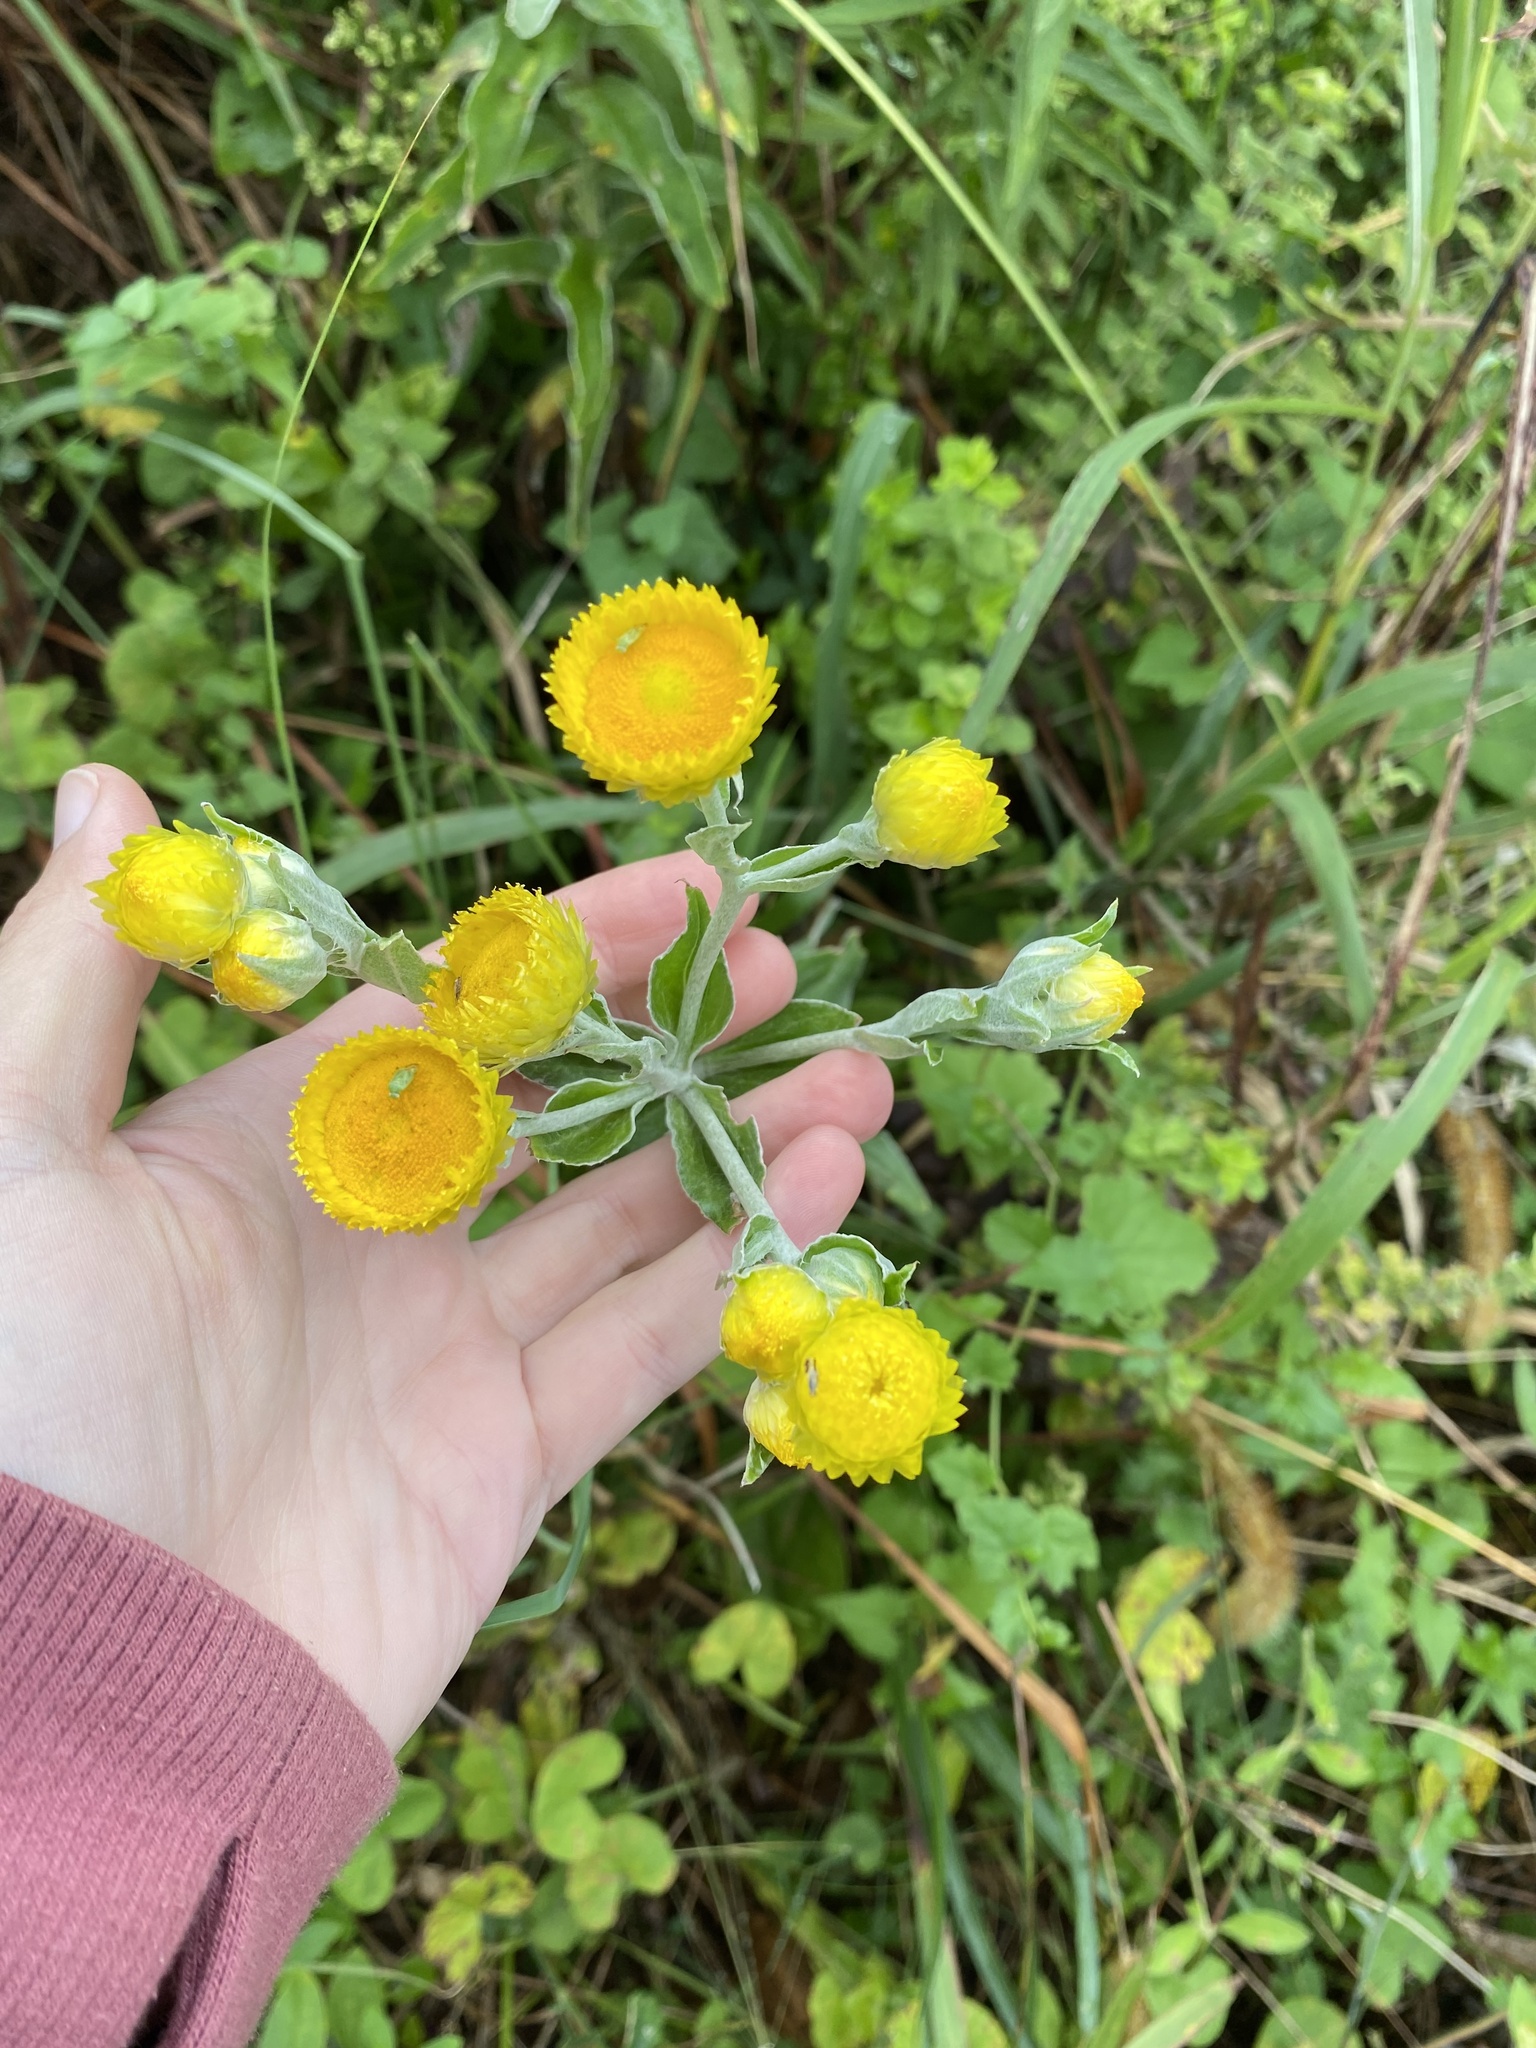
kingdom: Plantae
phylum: Tracheophyta
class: Magnoliopsida
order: Asterales
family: Asteraceae
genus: Helichrysum
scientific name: Helichrysum decorum
